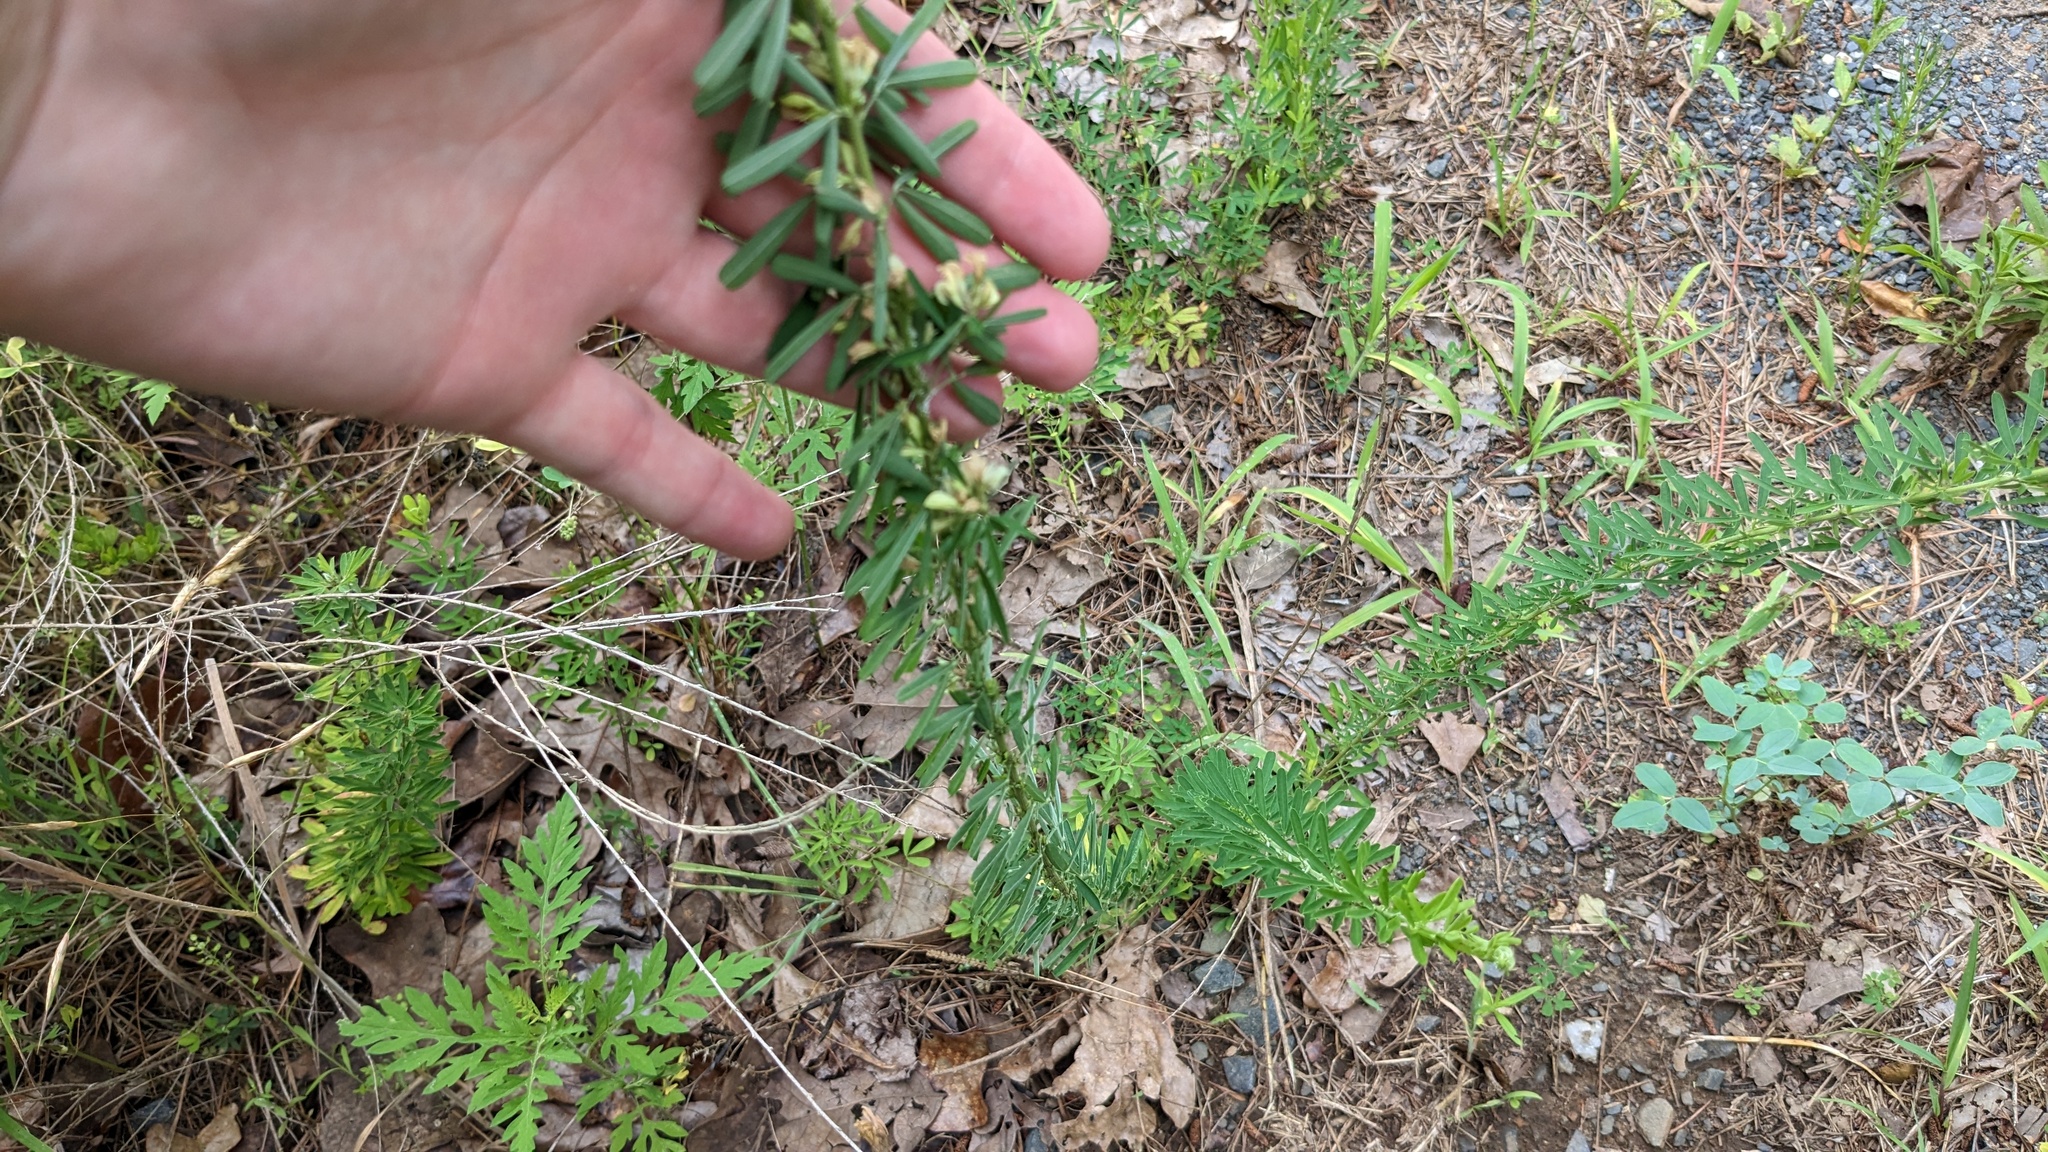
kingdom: Plantae
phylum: Tracheophyta
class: Magnoliopsida
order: Fabales
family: Fabaceae
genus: Lespedeza
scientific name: Lespedeza cuneata
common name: Chinese bush-clover
